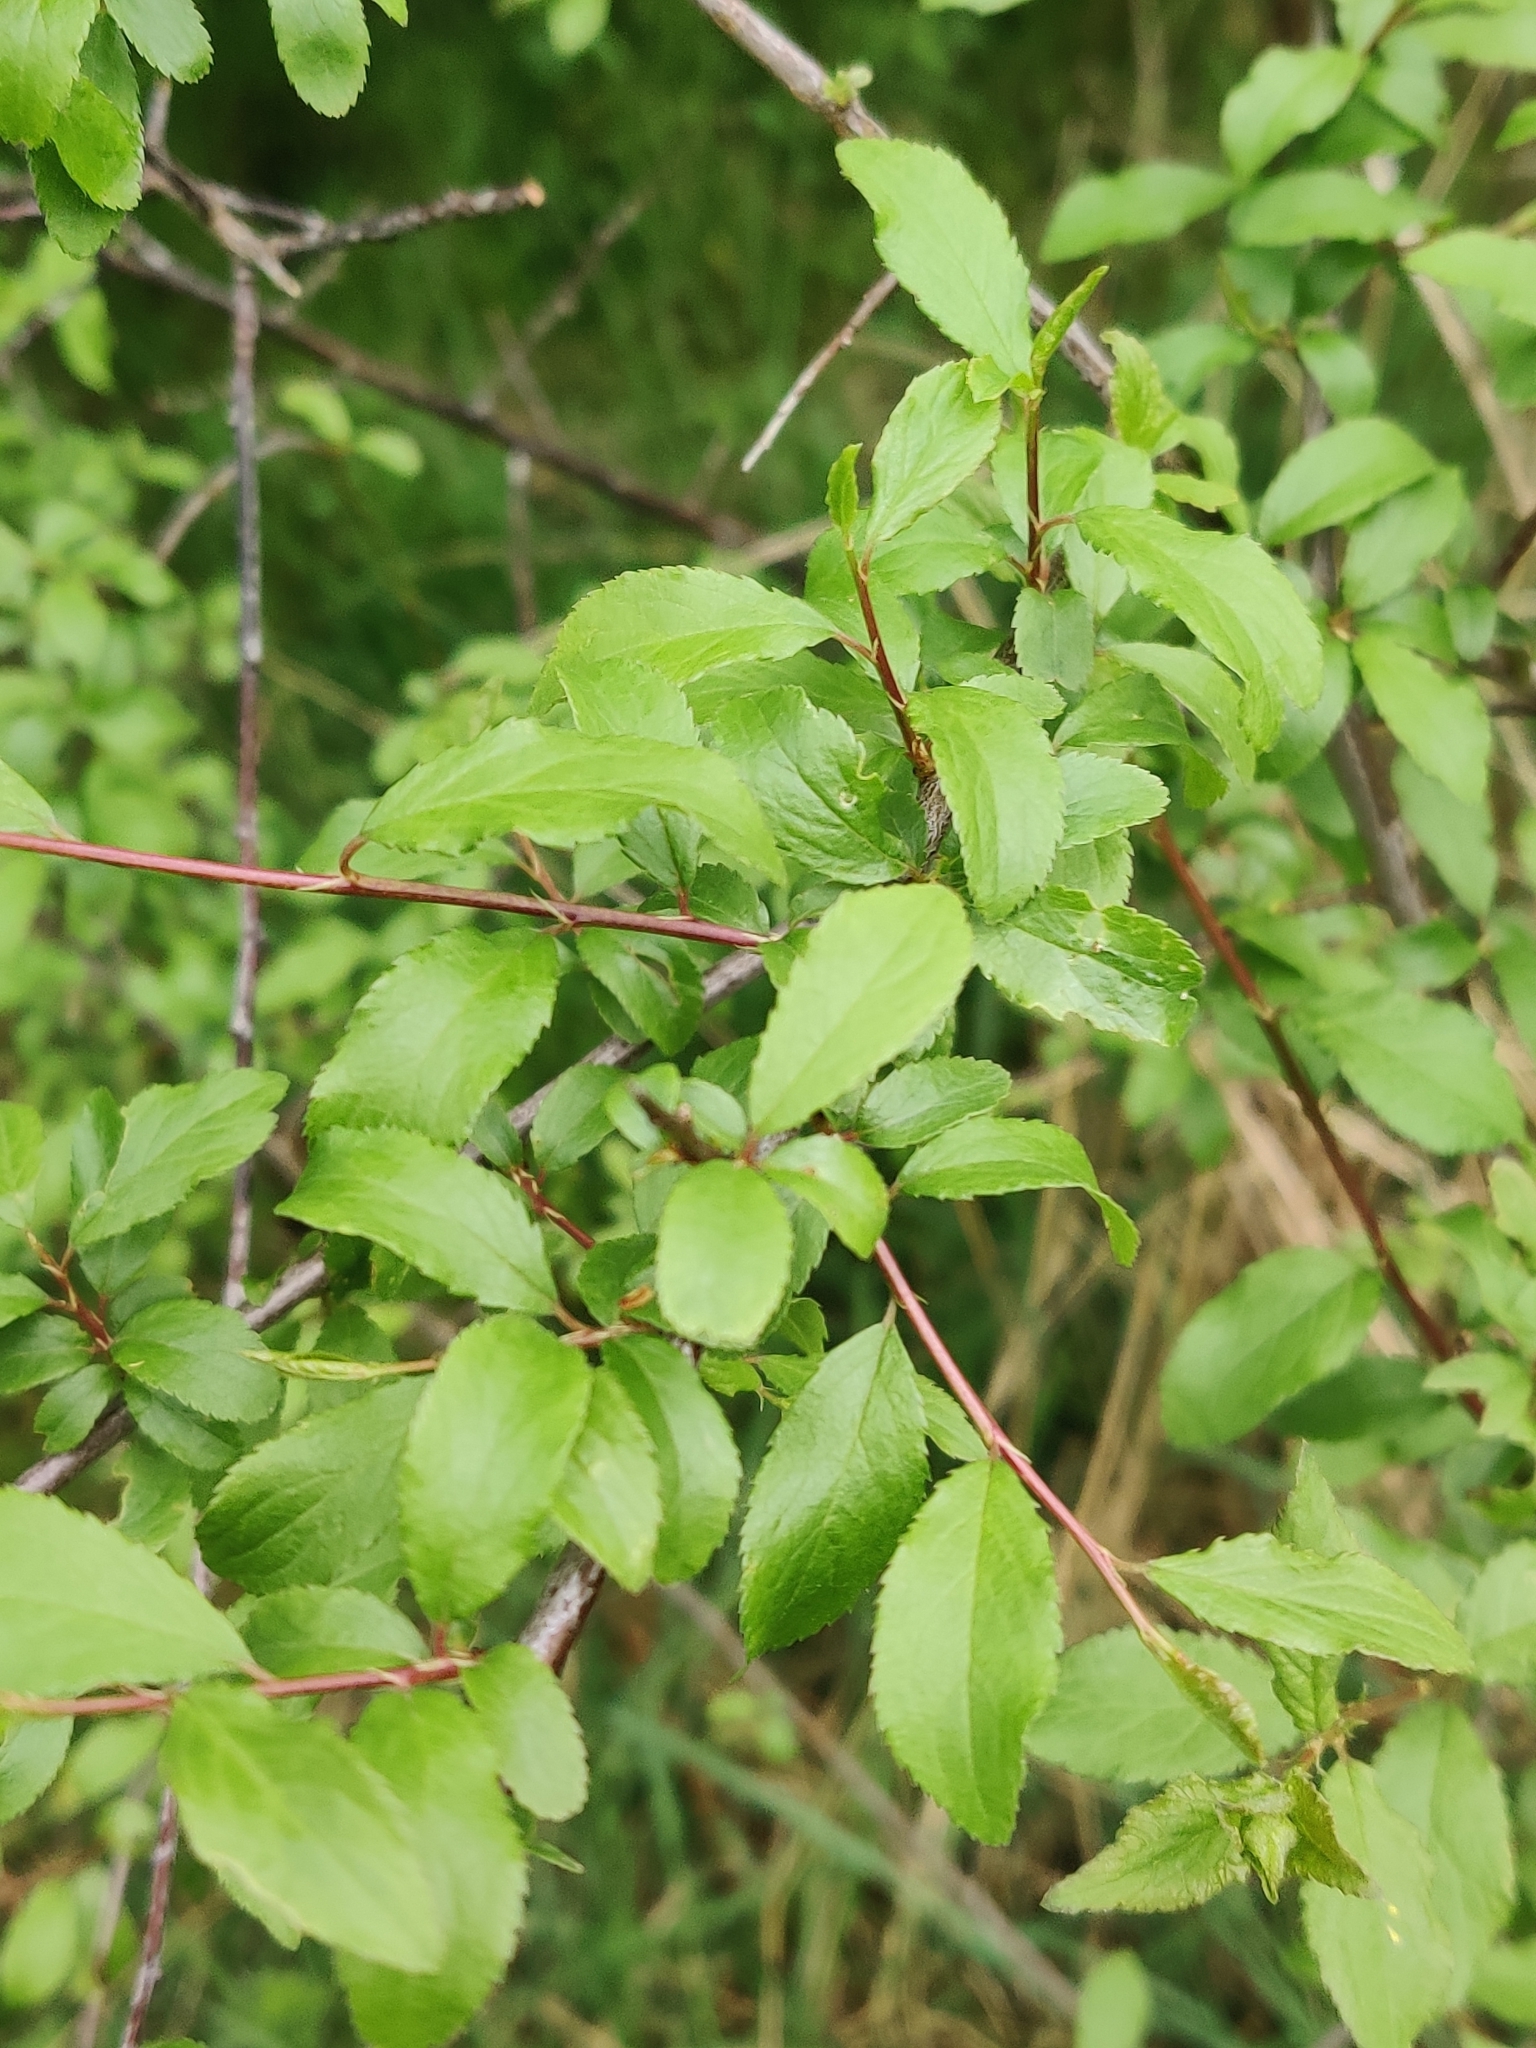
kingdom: Plantae
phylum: Tracheophyta
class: Magnoliopsida
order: Rosales
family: Rosaceae
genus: Prunus
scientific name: Prunus spinosa
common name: Blackthorn
